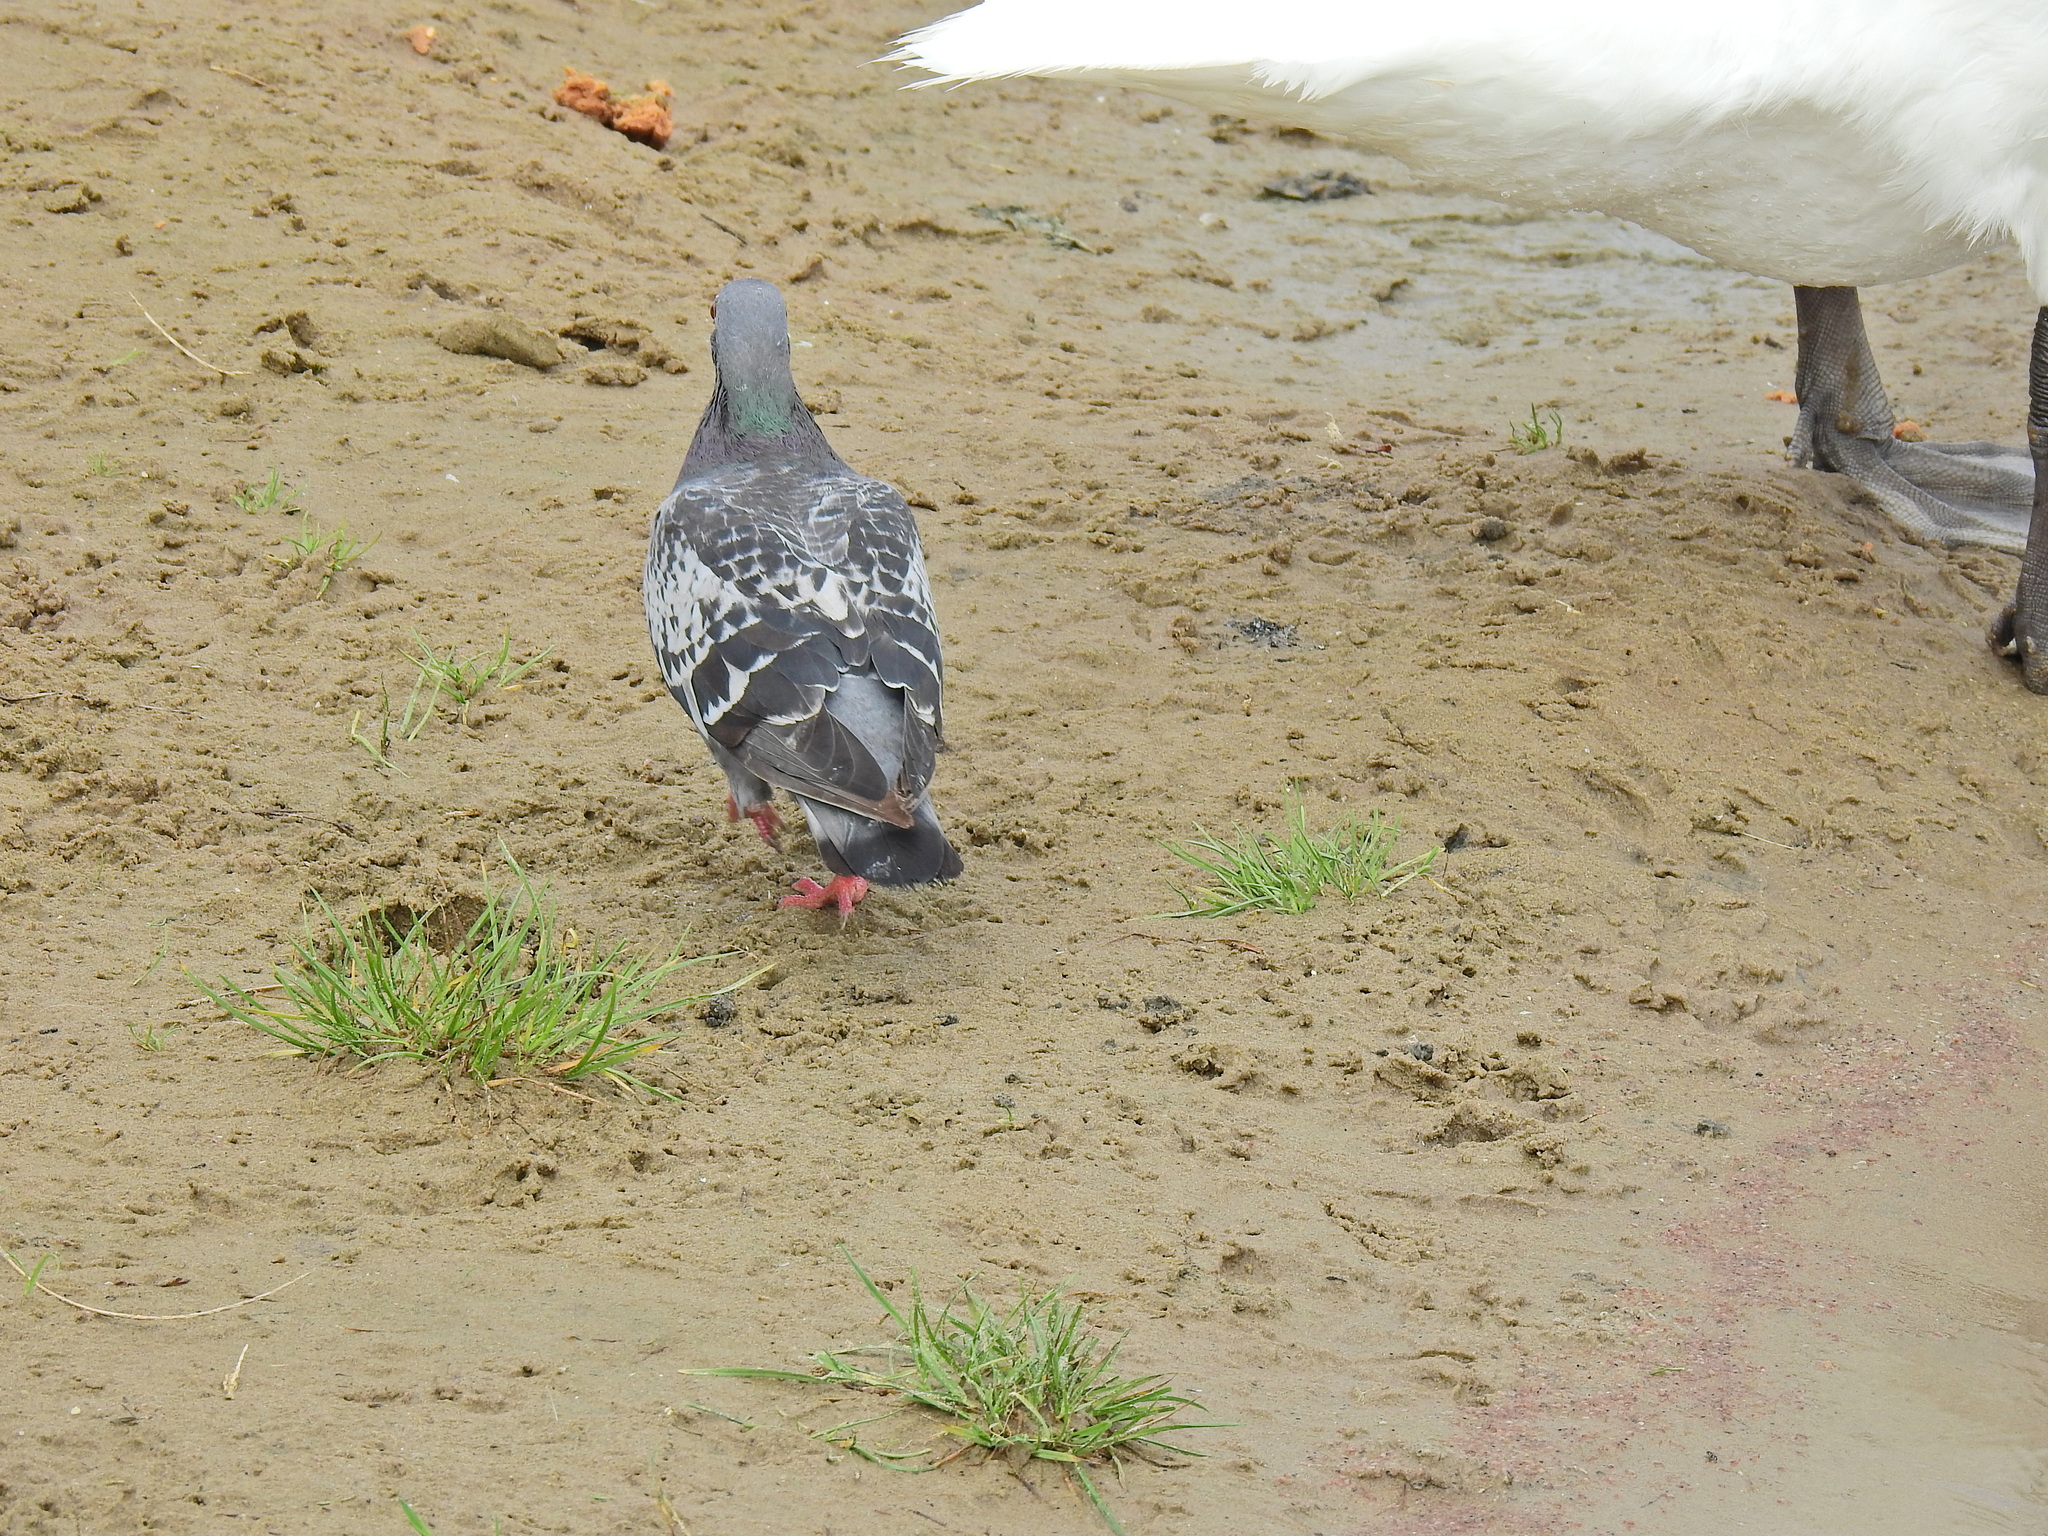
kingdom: Animalia
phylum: Chordata
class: Aves
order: Columbiformes
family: Columbidae
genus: Columba
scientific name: Columba livia
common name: Rock pigeon
